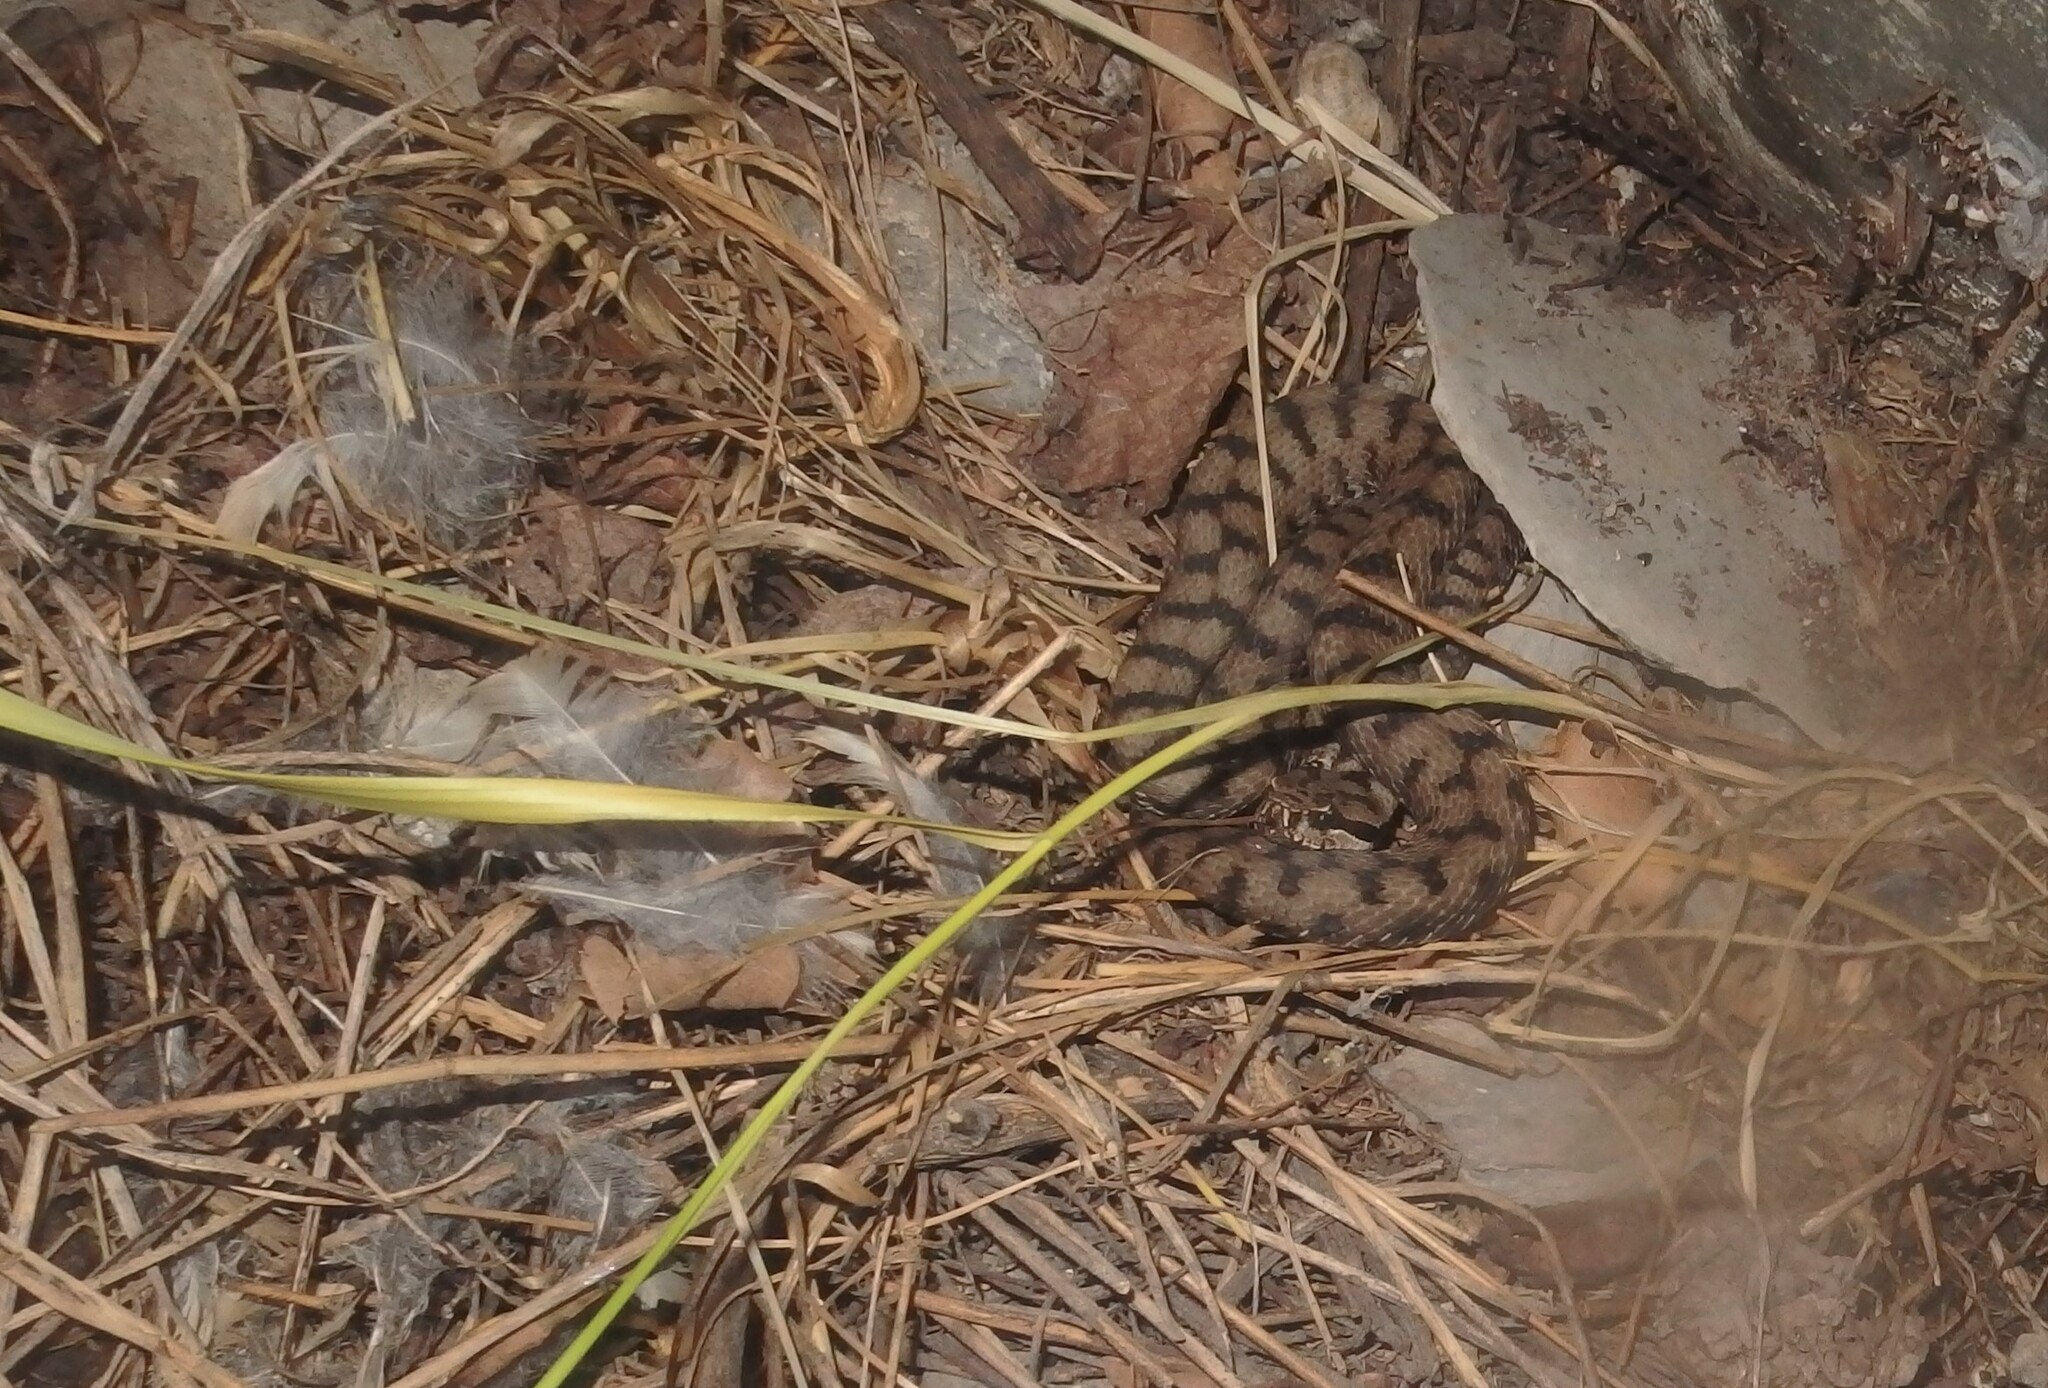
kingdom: Animalia
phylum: Chordata
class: Squamata
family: Viperidae
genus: Vipera
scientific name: Vipera aspis
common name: Asp viper
